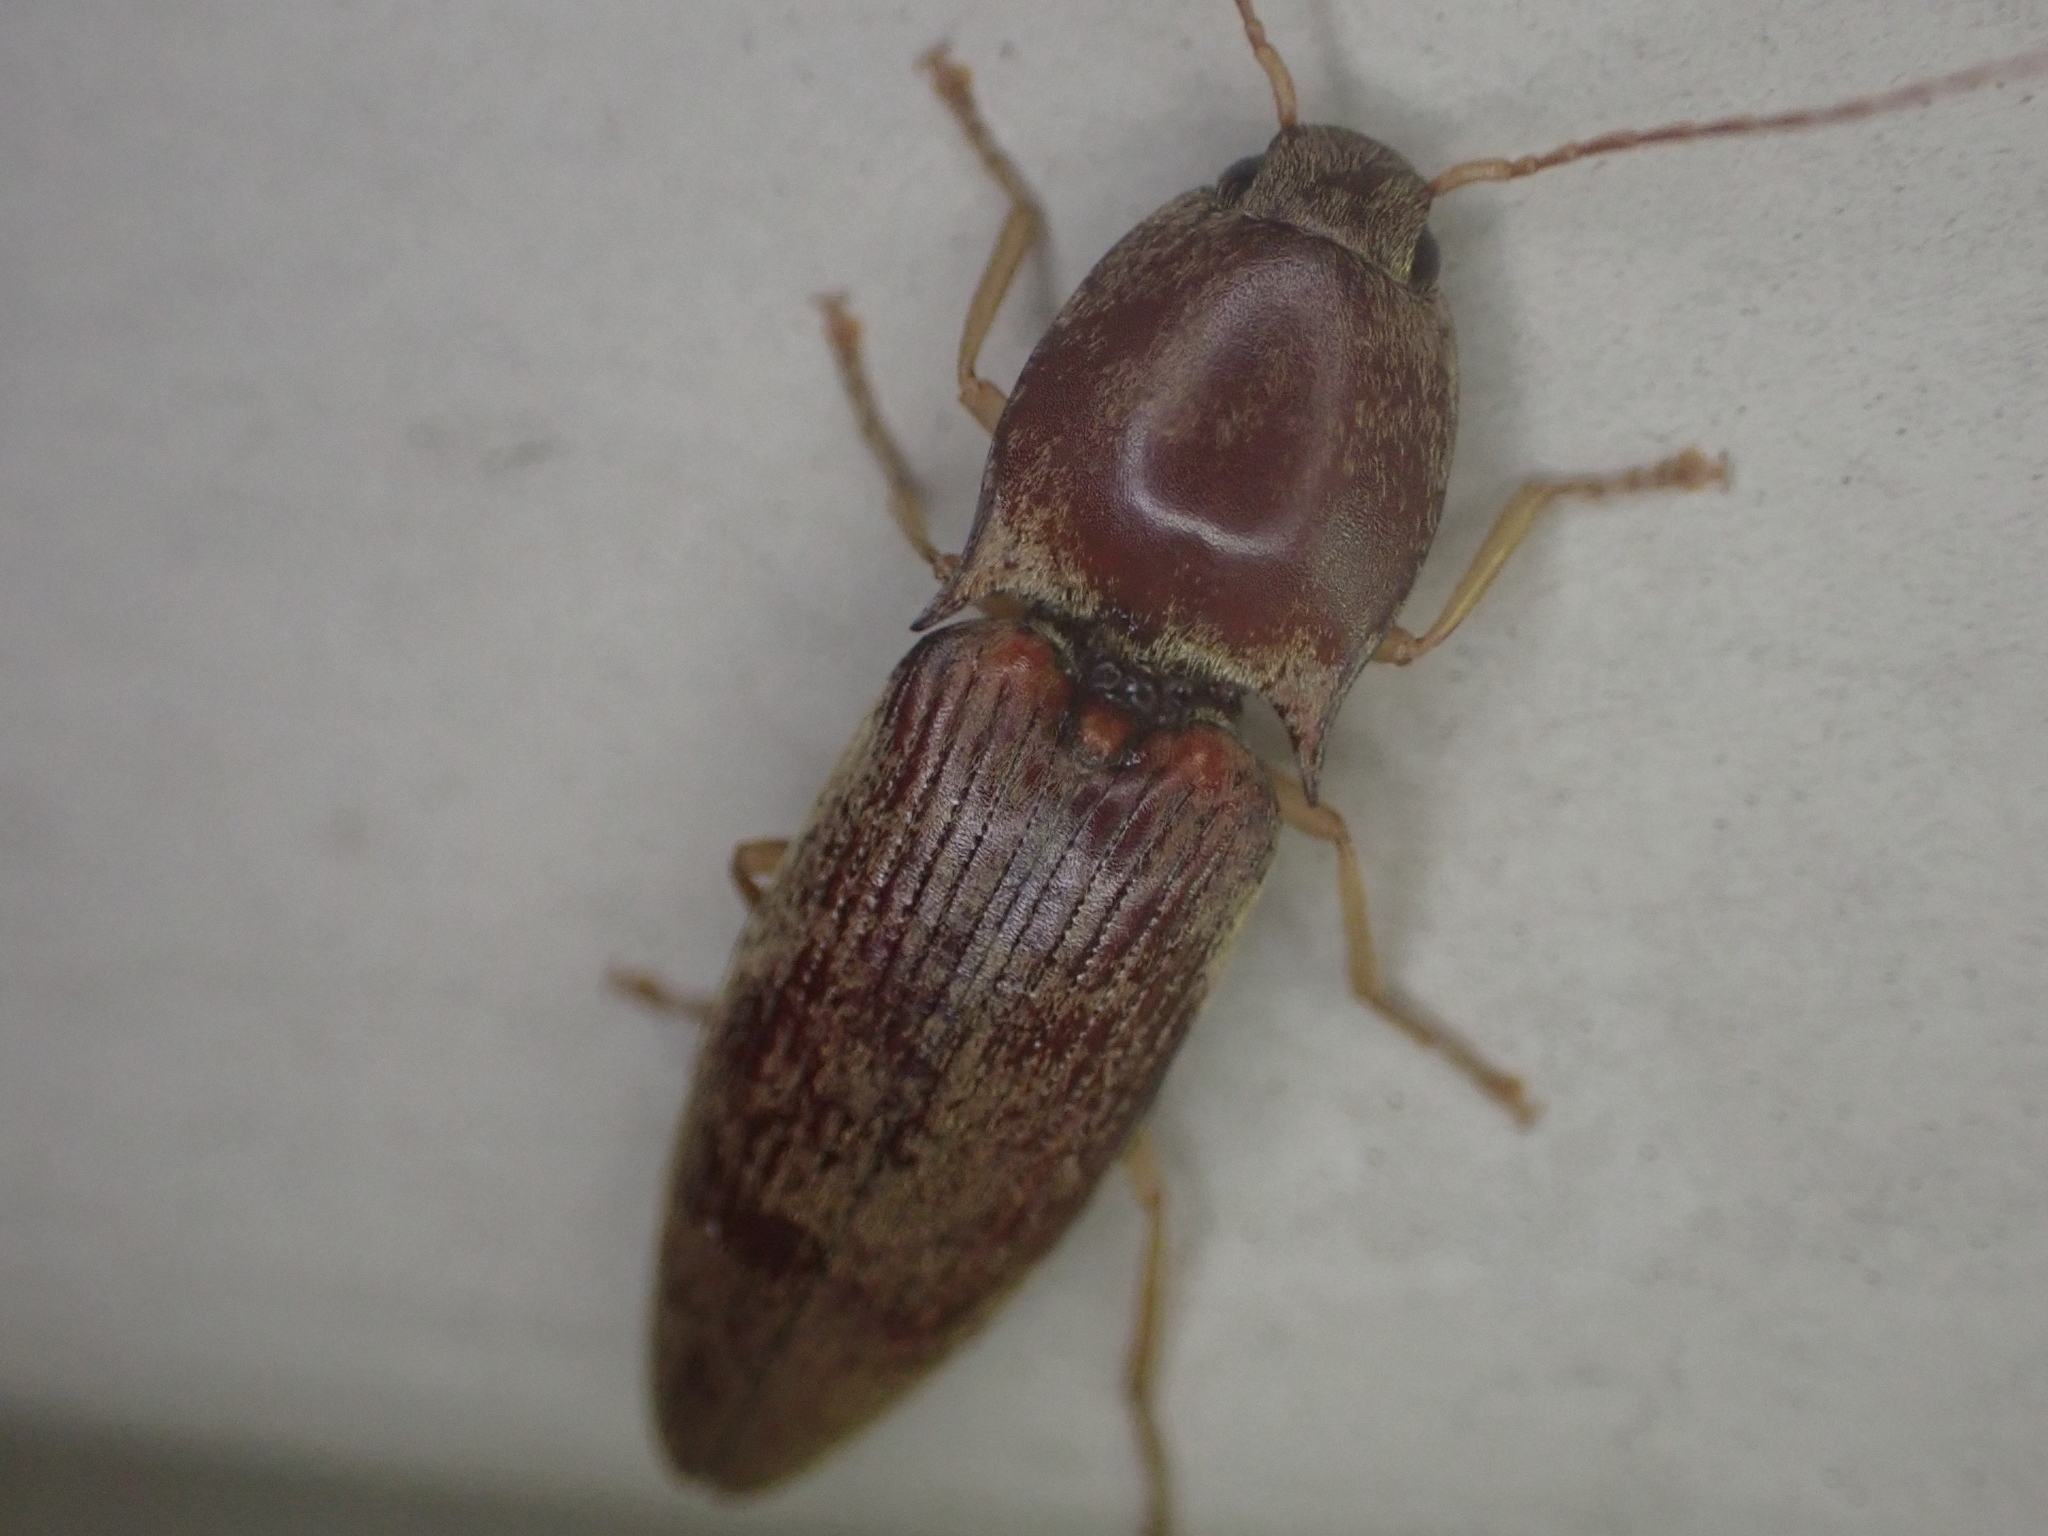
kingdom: Animalia
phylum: Arthropoda
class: Insecta
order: Coleoptera
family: Elateridae
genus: Monocrepidius
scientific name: Monocrepidius lividus
